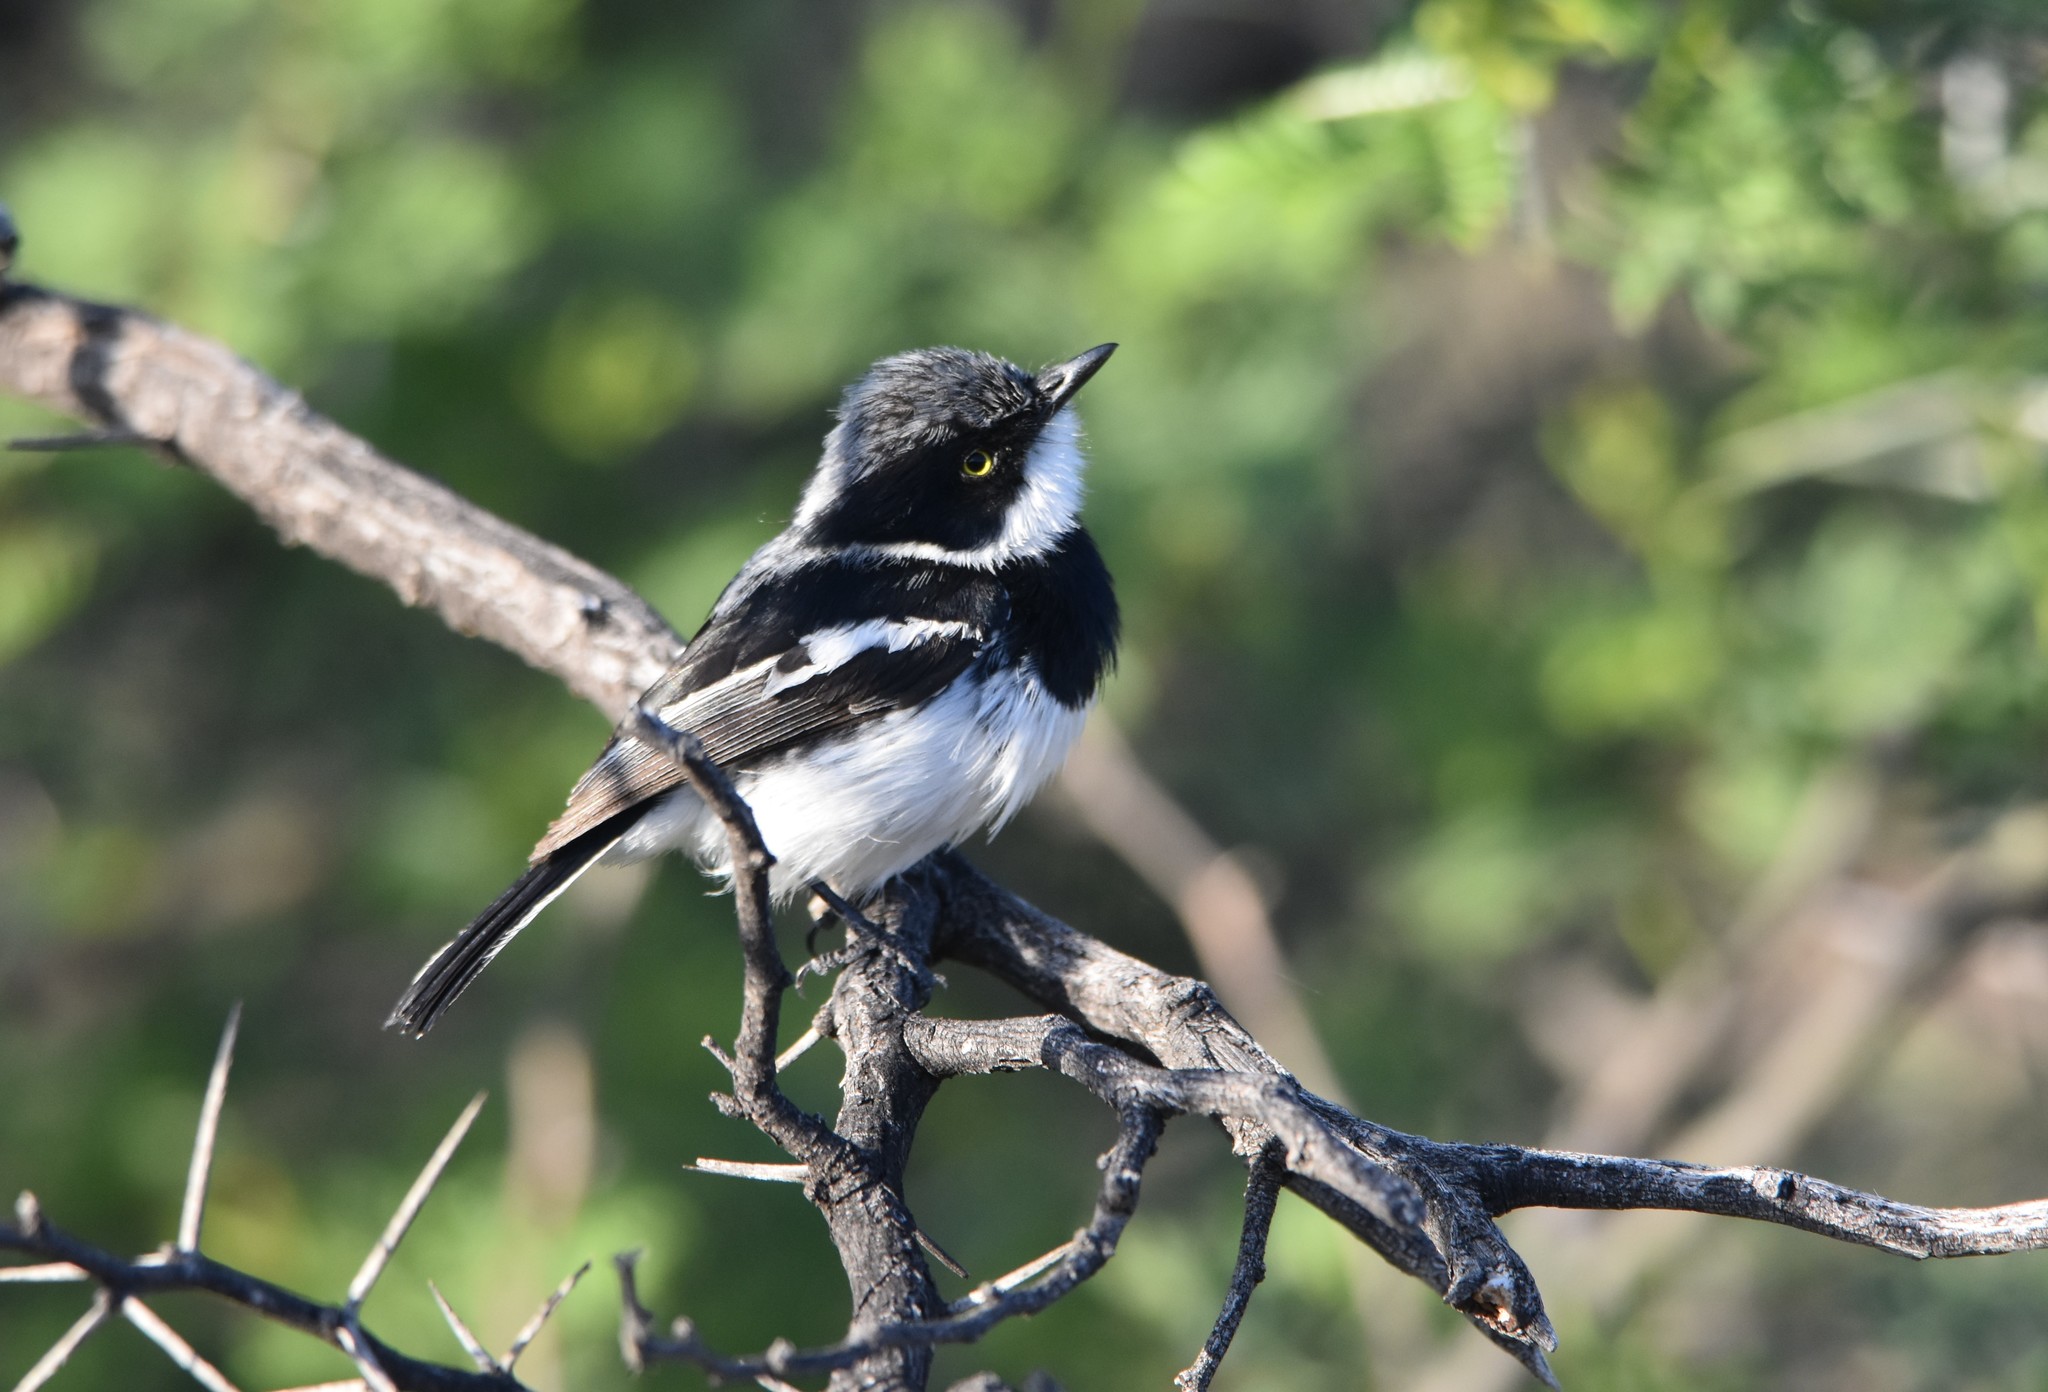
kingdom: Animalia
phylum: Chordata
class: Aves
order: Passeriformes
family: Platysteiridae
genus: Batis
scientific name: Batis pririt
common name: Pririt batis
